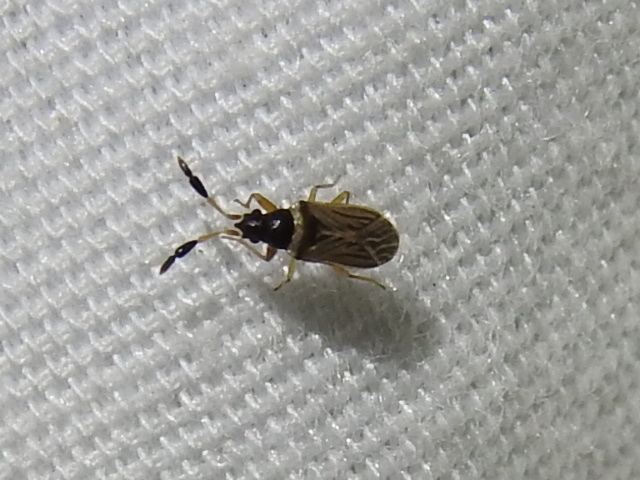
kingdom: Animalia
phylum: Arthropoda
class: Insecta
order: Hemiptera
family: Rhyparochromidae
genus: Ptochiomera
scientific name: Ptochiomera nodosa
